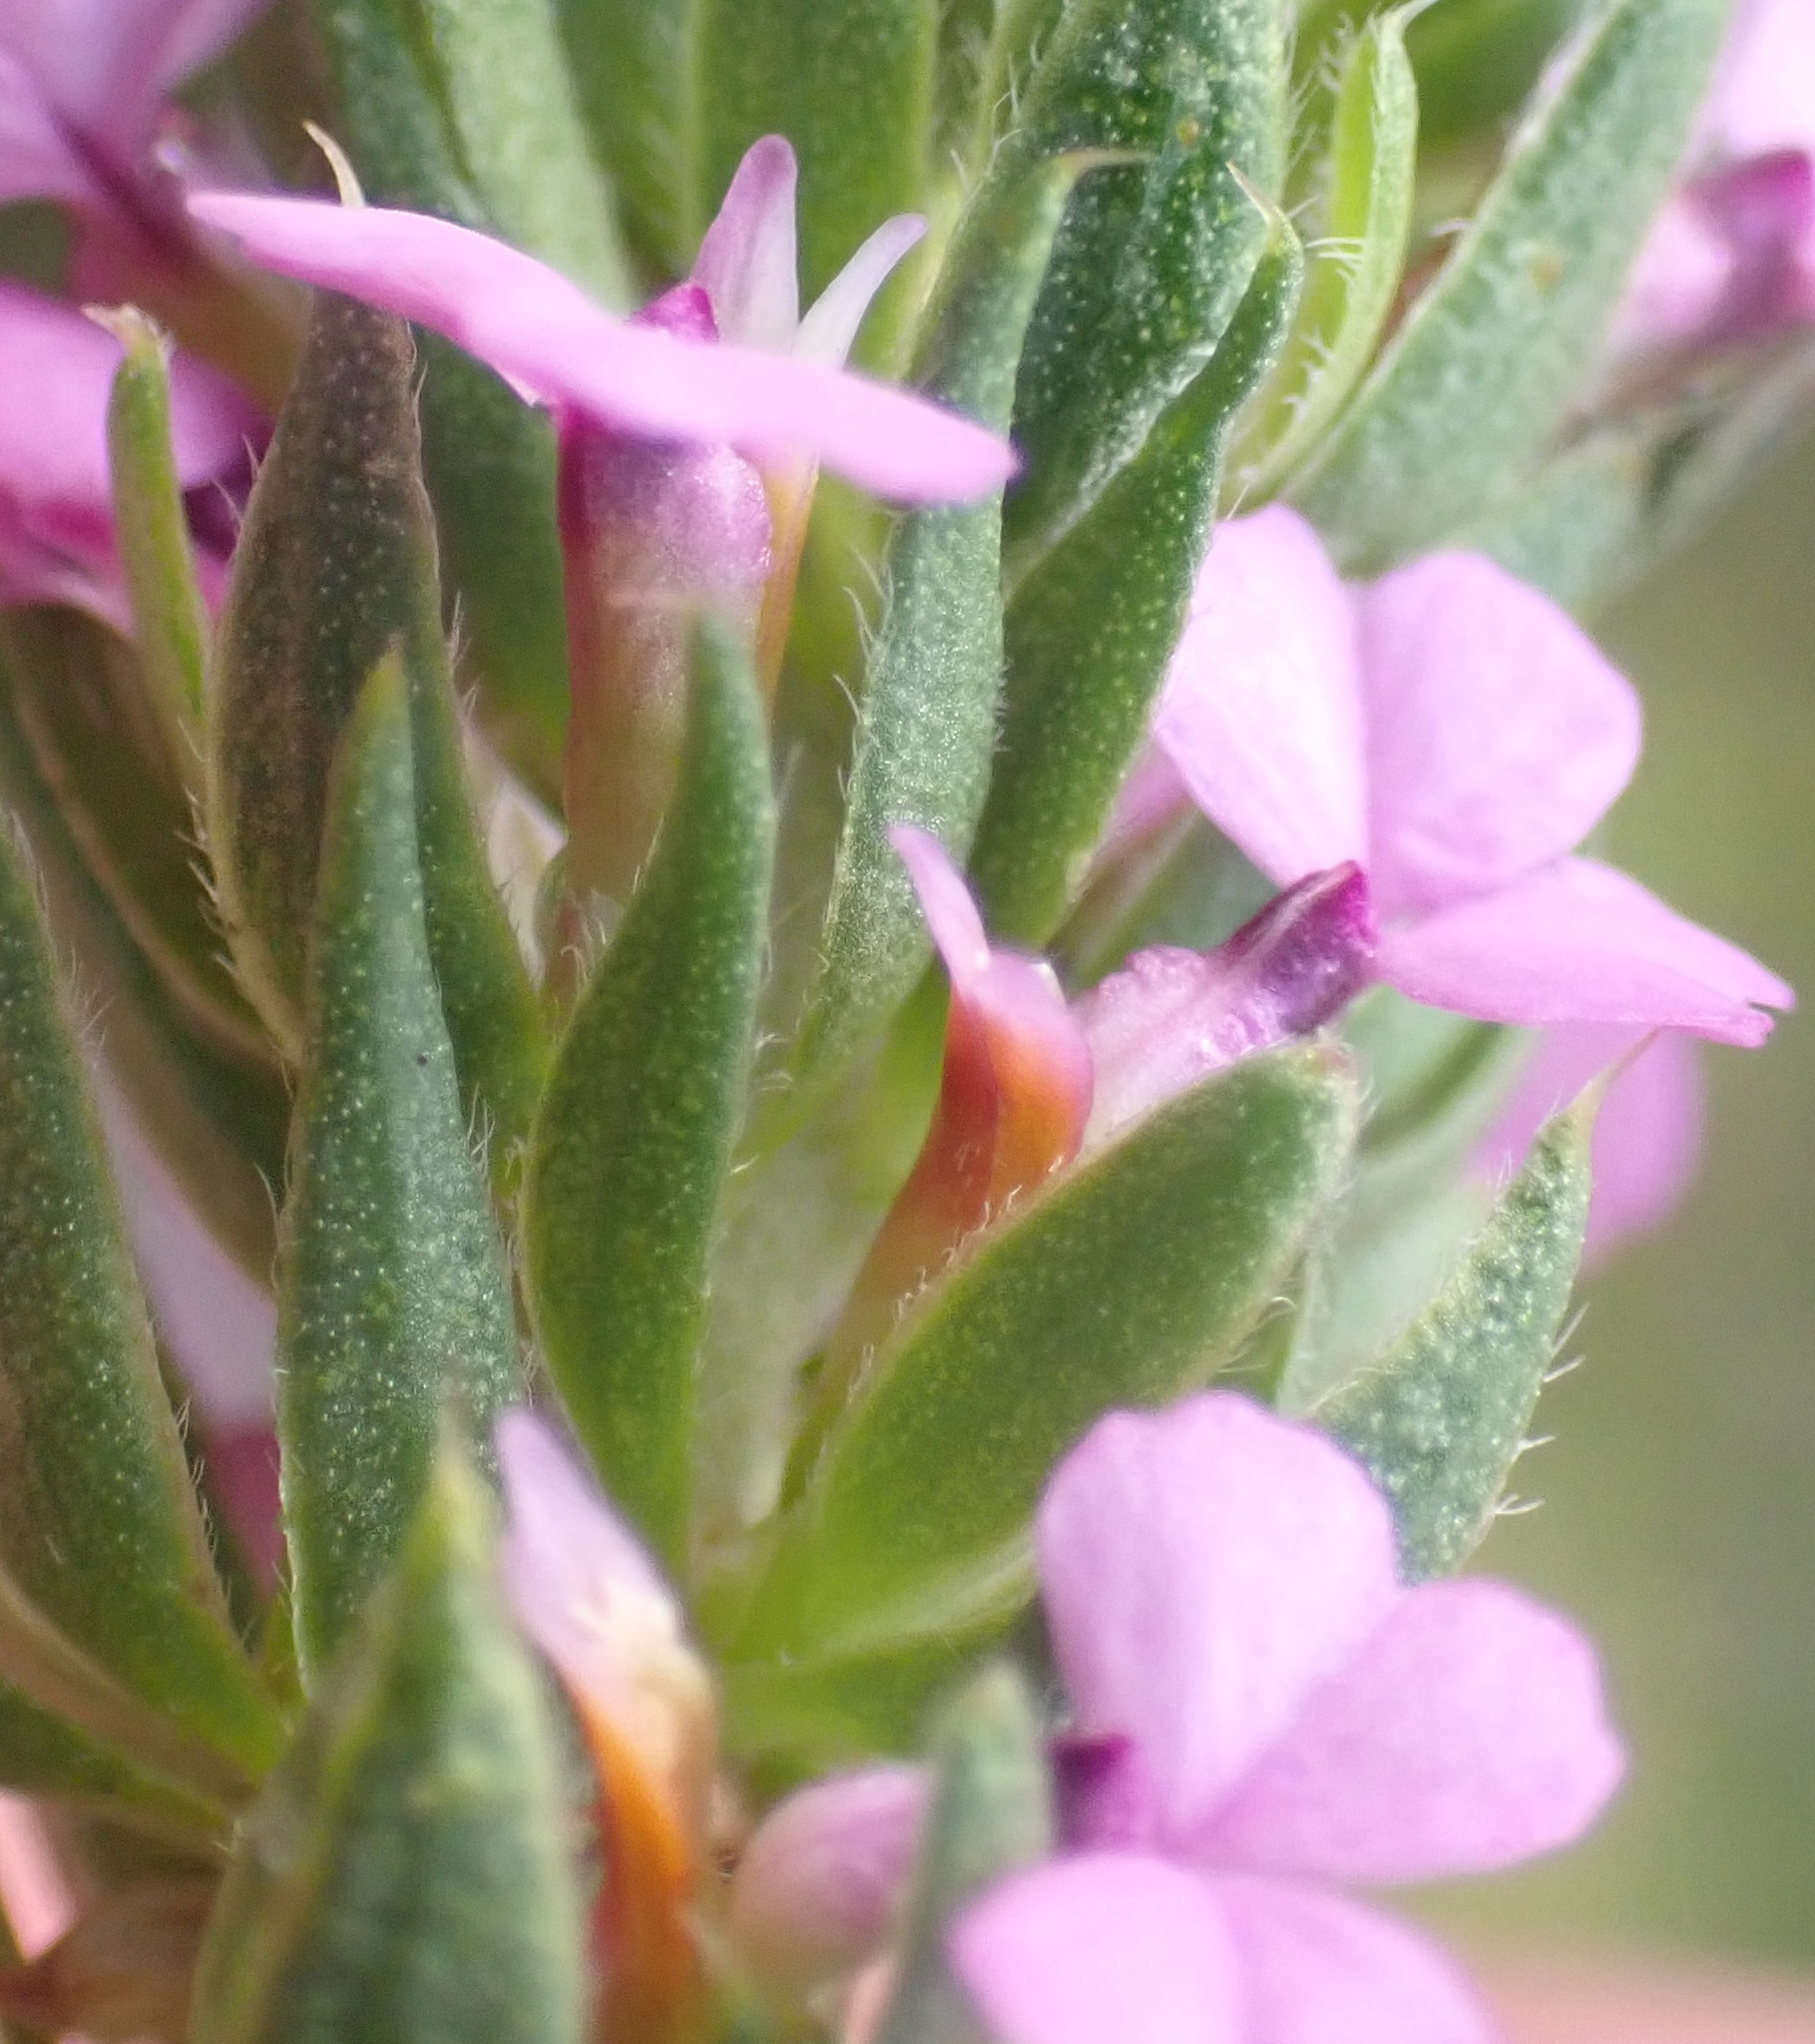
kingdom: Plantae
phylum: Tracheophyta
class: Magnoliopsida
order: Fabales
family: Polygalaceae
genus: Muraltia
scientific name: Muraltia alopecuroides
